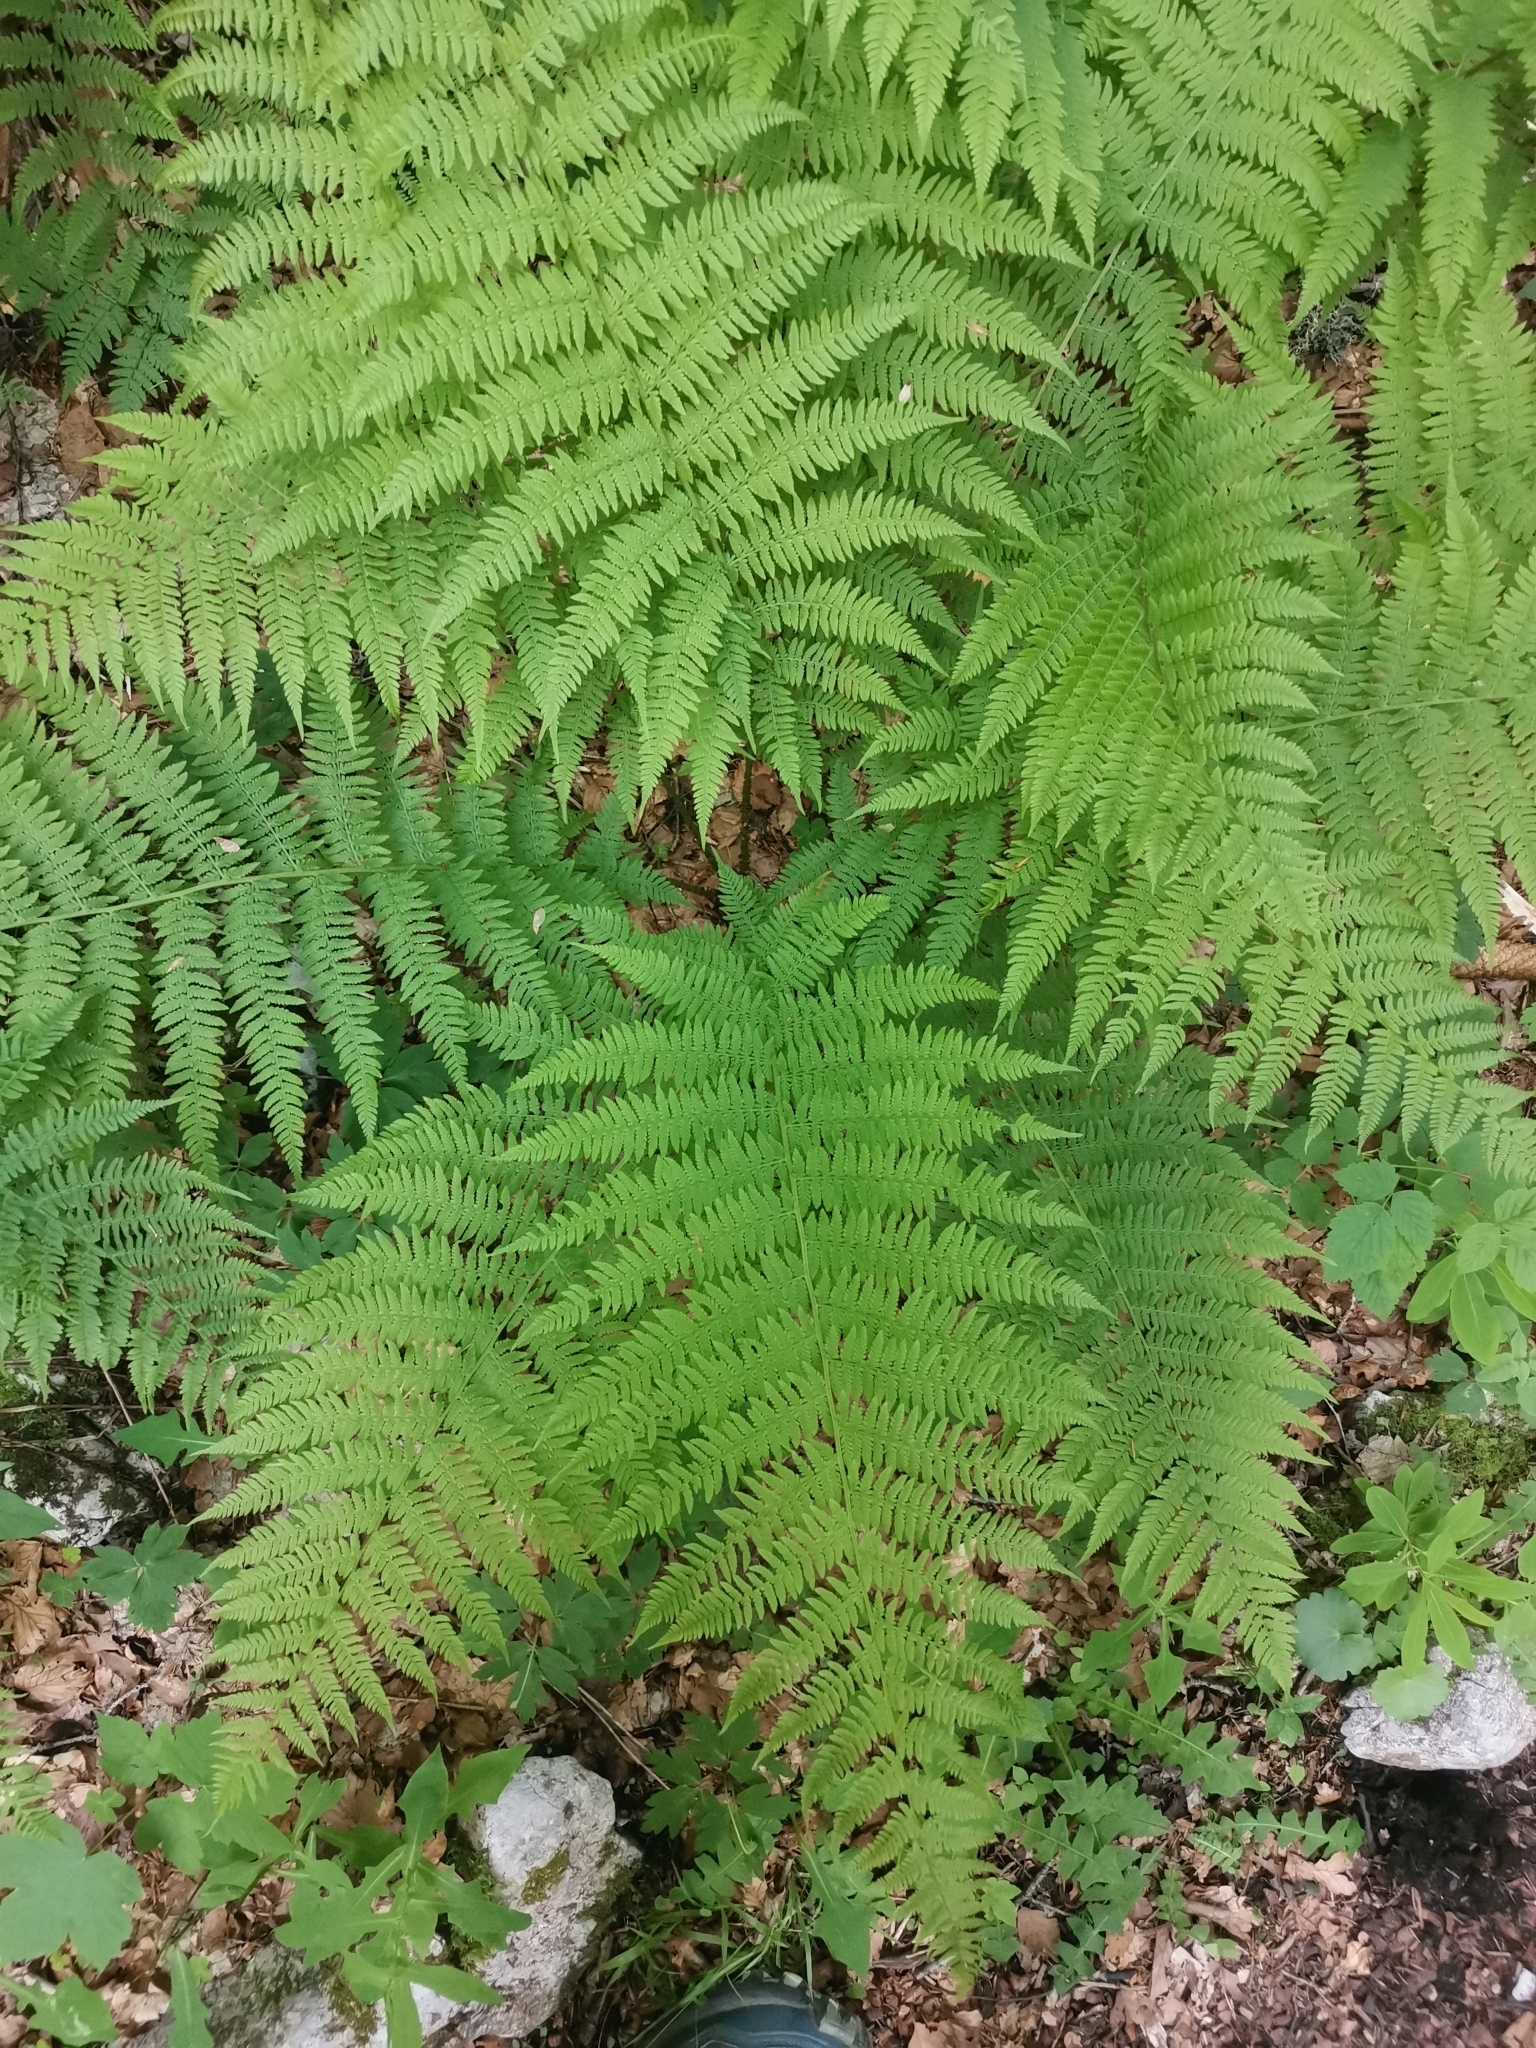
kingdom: Plantae
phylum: Tracheophyta
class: Polypodiopsida
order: Polypodiales
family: Athyriaceae
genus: Athyrium
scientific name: Athyrium filix-femina
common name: Lady fern
